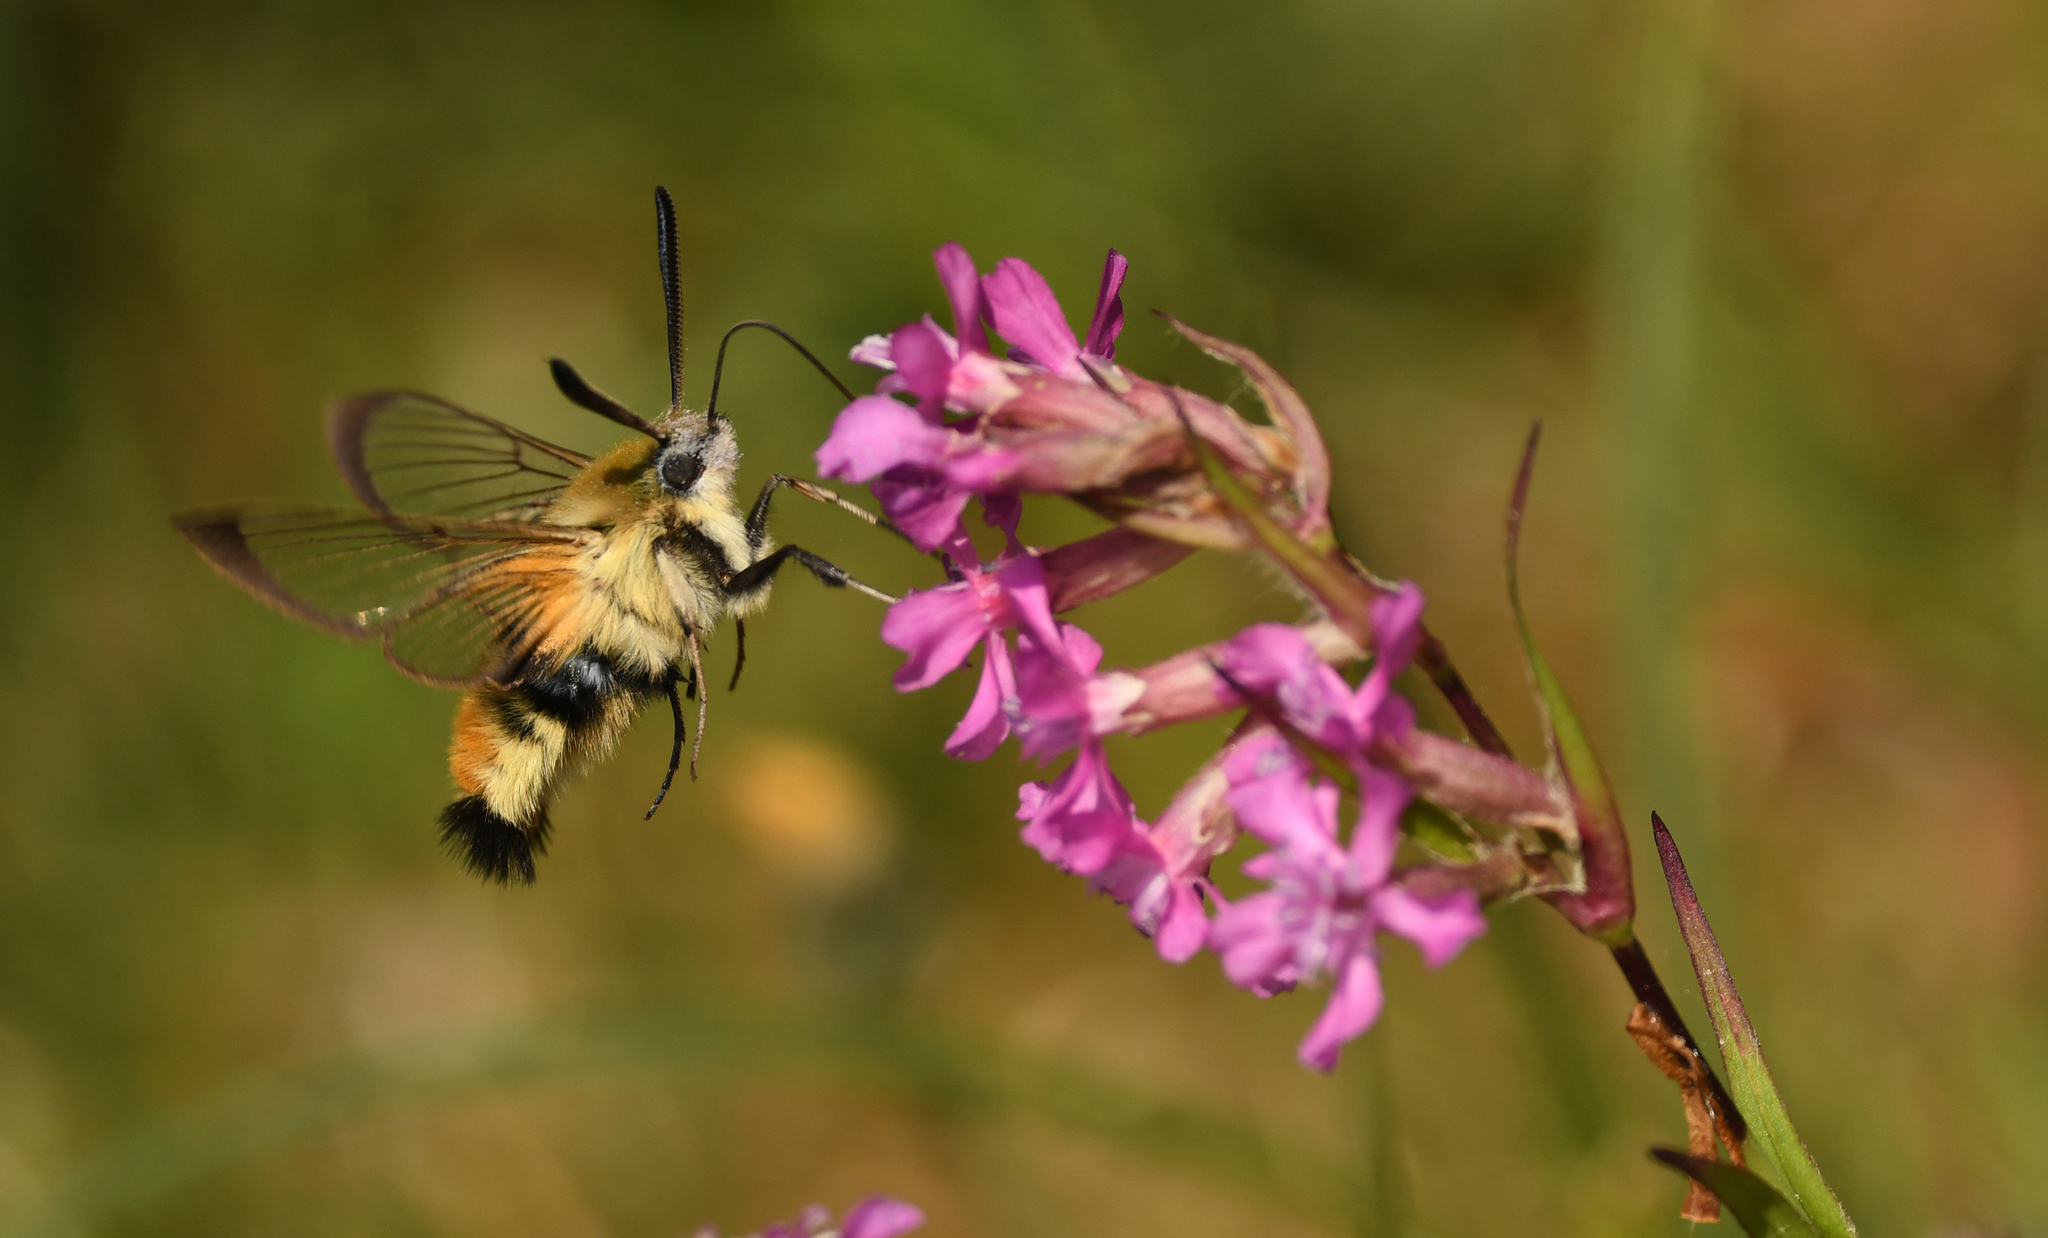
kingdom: Animalia
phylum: Arthropoda
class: Insecta
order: Lepidoptera
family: Sphingidae
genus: Hemaris
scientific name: Hemaris tityus
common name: Narrow-bordered bee hawk-moth
